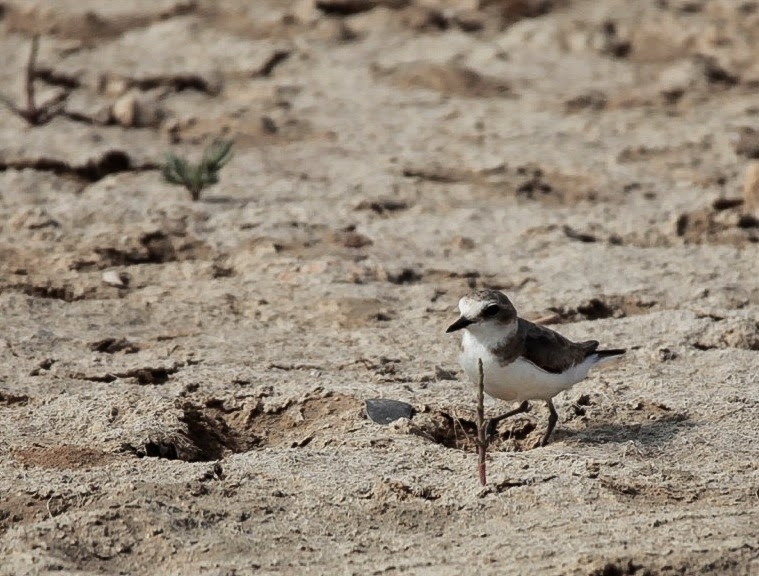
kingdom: Animalia
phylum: Chordata
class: Aves
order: Charadriiformes
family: Charadriidae
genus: Charadrius
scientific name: Charadrius alexandrinus
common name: Kentish plover
